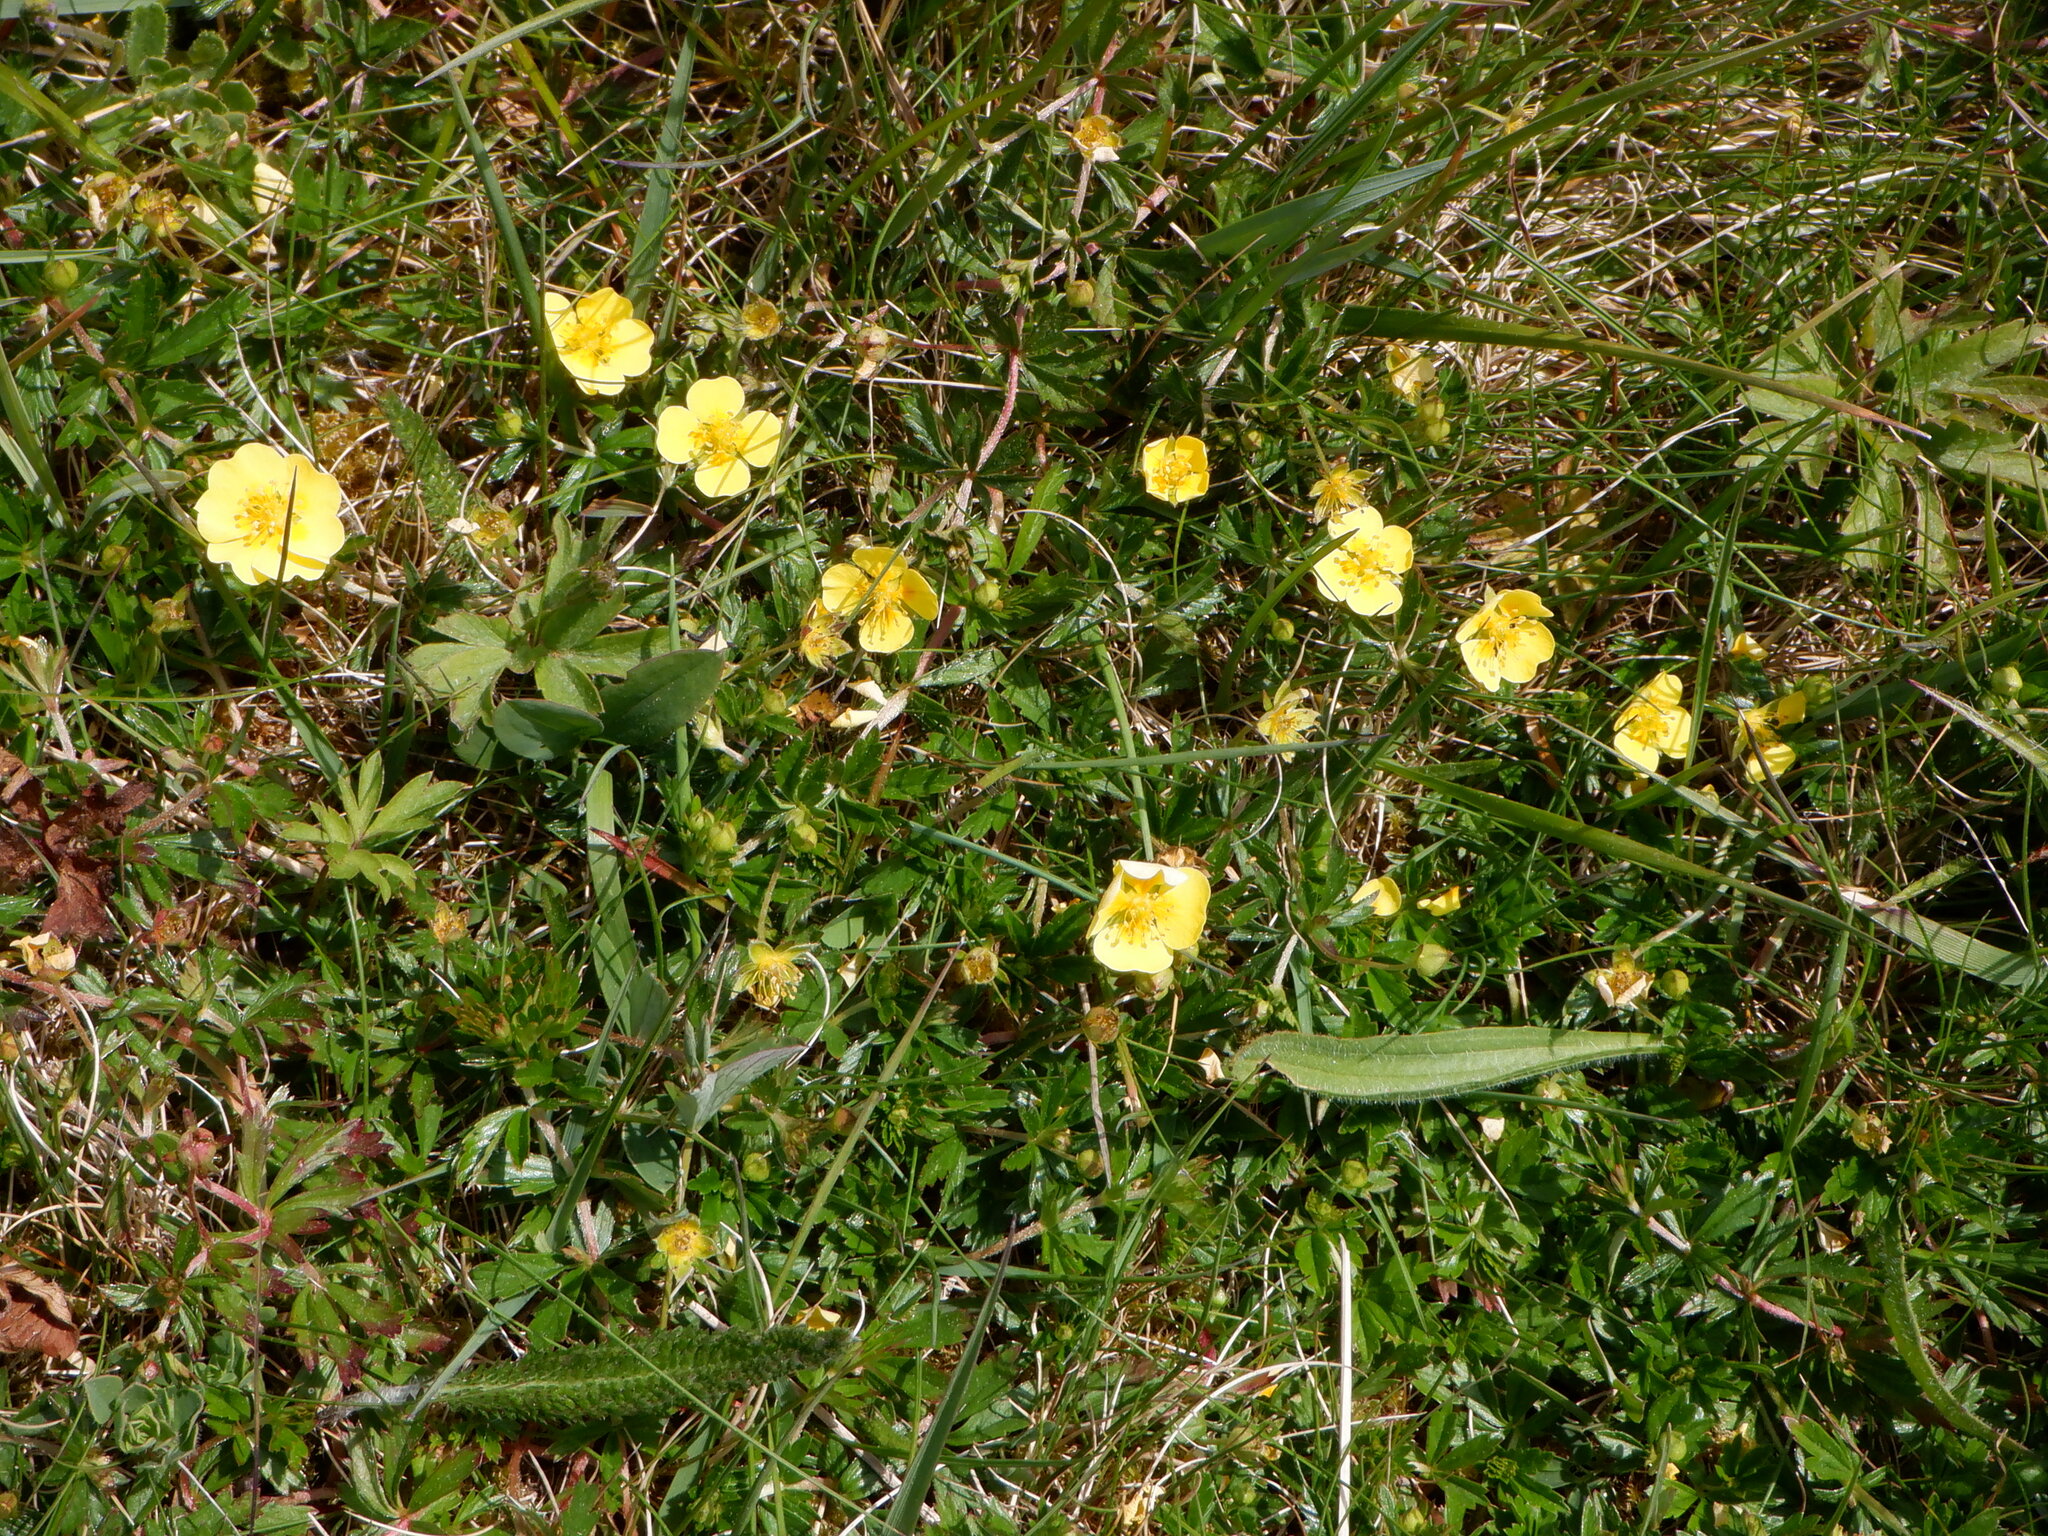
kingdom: Plantae
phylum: Tracheophyta
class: Magnoliopsida
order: Rosales
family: Rosaceae
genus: Potentilla
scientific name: Potentilla anglica
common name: Trailing tormentil
